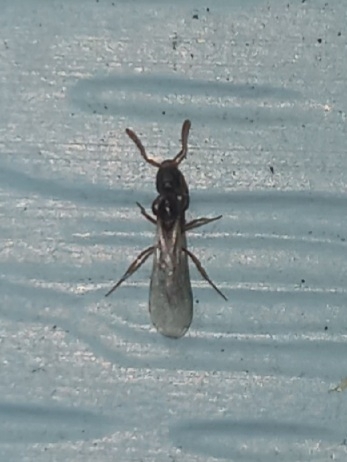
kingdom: Animalia
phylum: Arthropoda
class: Insecta
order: Hymenoptera
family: Formicidae
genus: Hypoponera
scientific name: Hypoponera opacior
